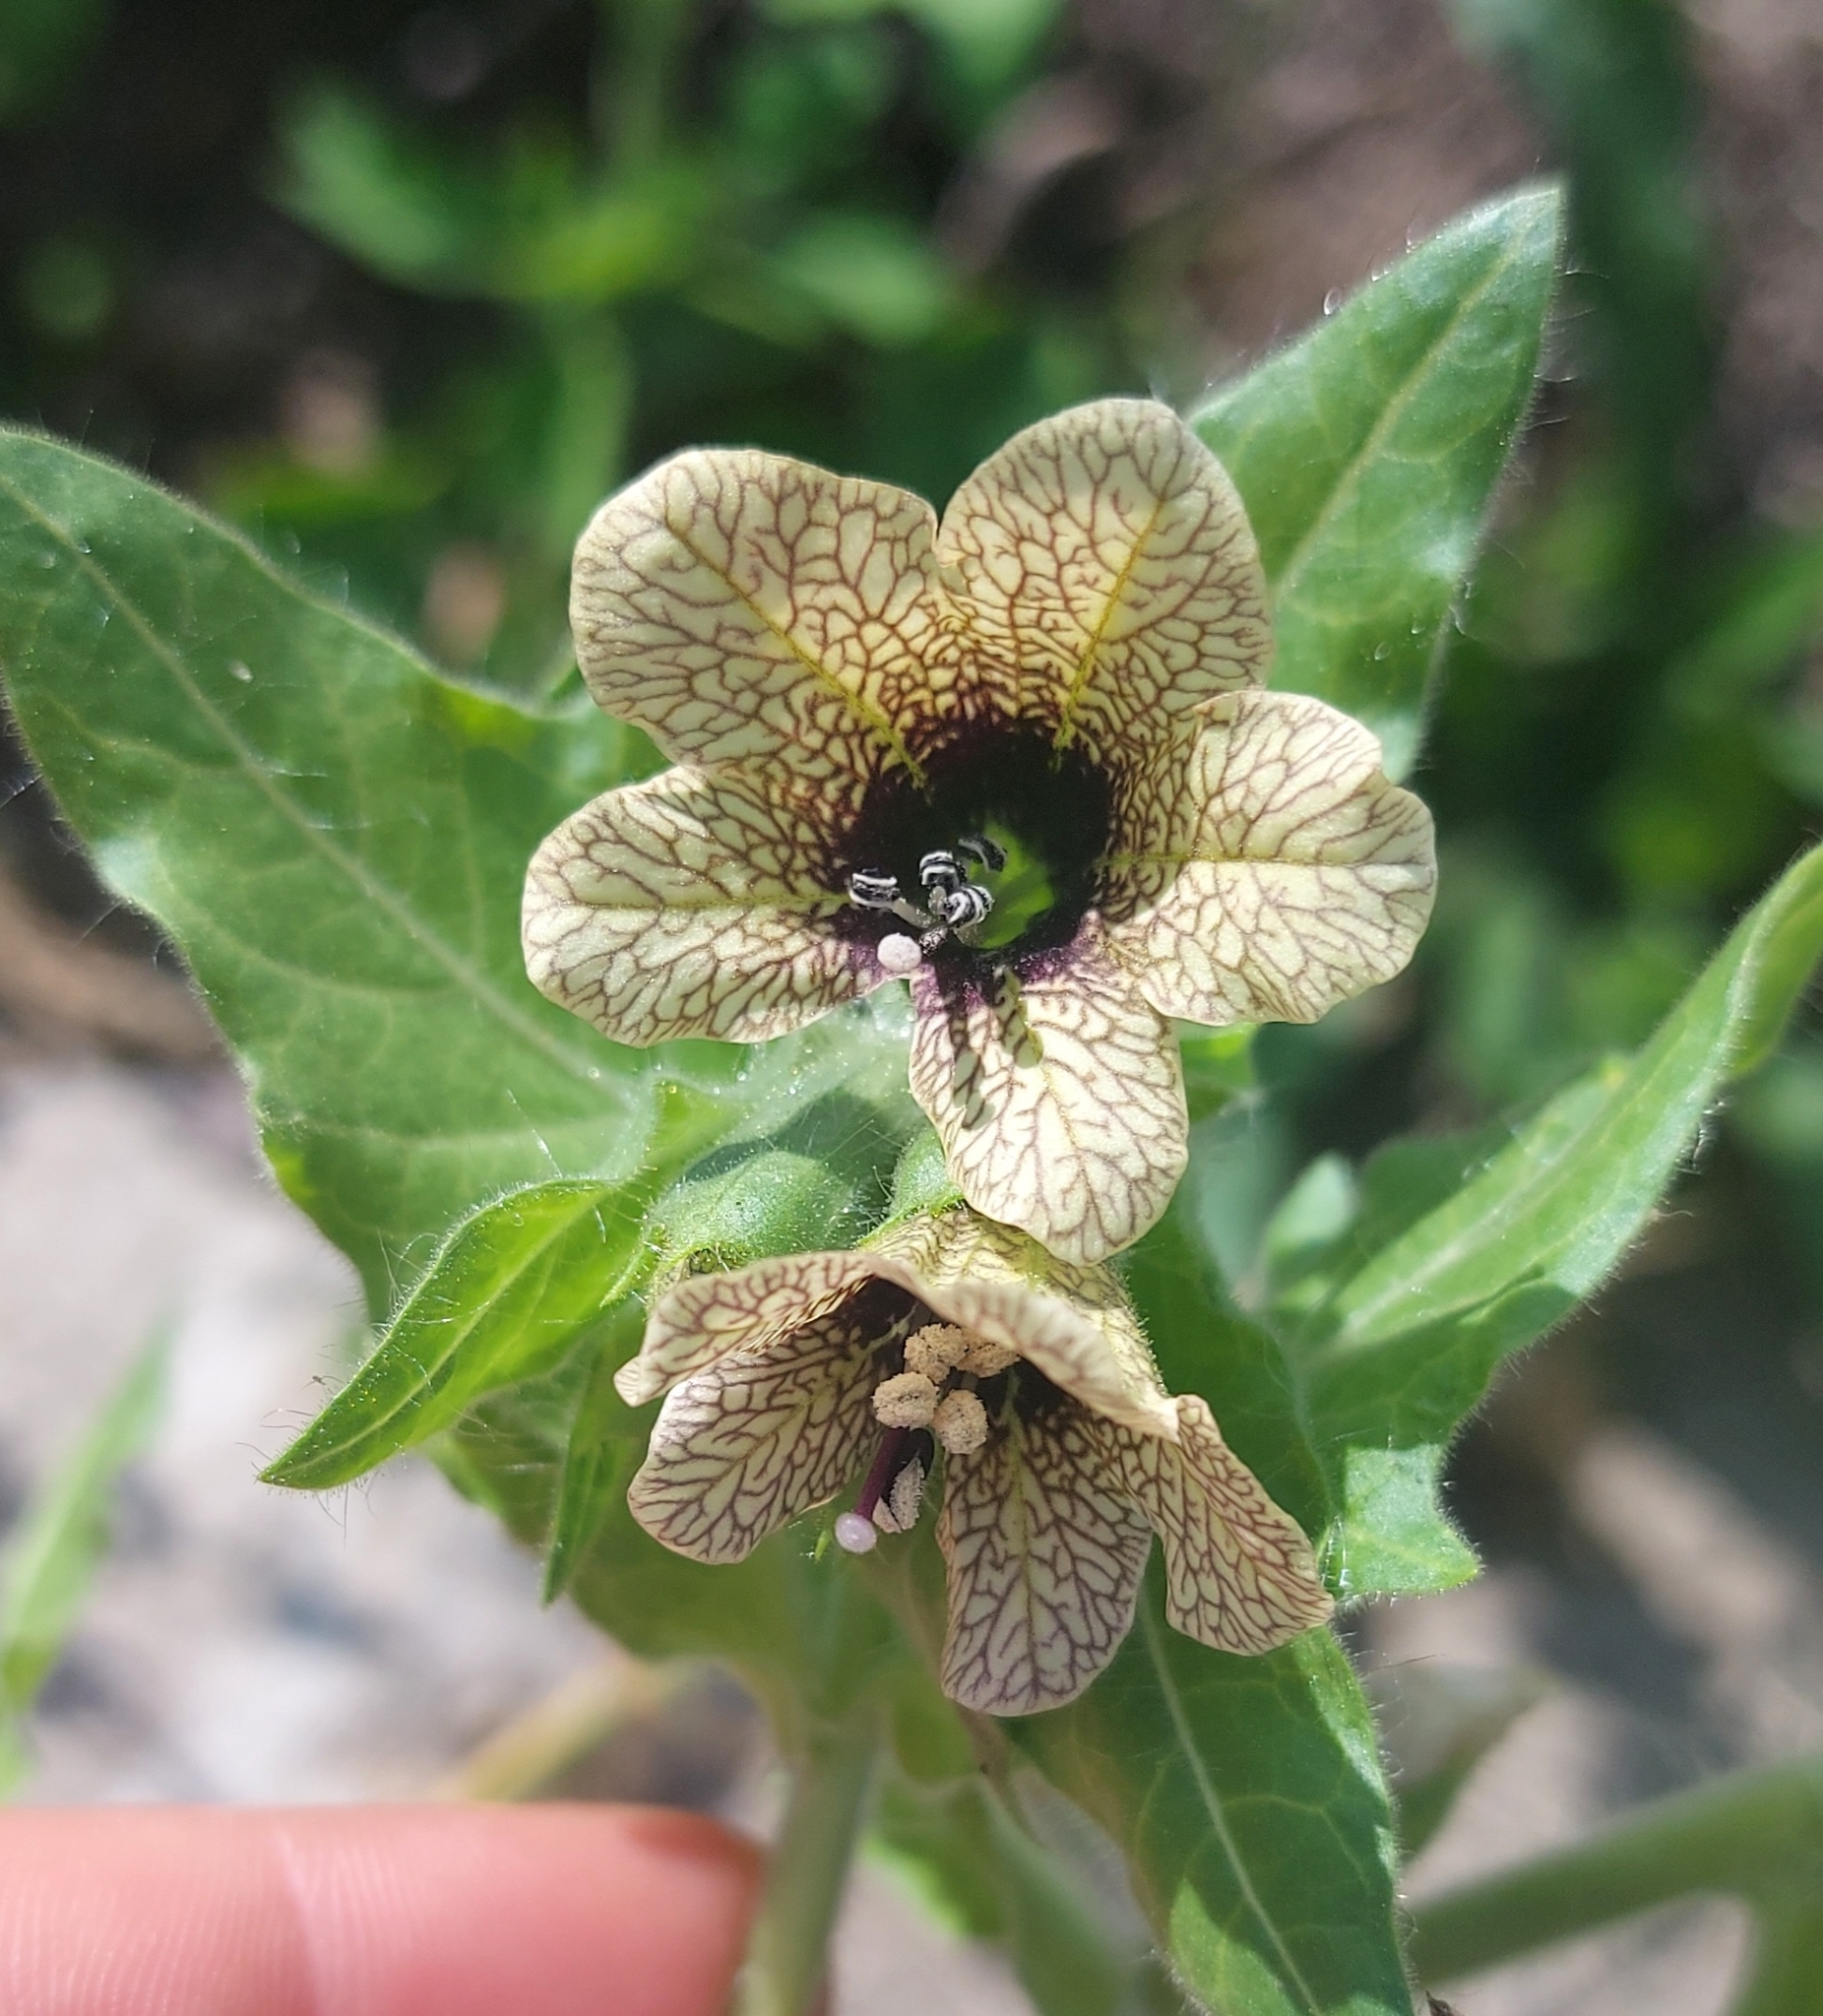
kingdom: Plantae
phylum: Tracheophyta
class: Magnoliopsida
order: Solanales
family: Solanaceae
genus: Hyoscyamus
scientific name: Hyoscyamus niger
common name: Henbane
